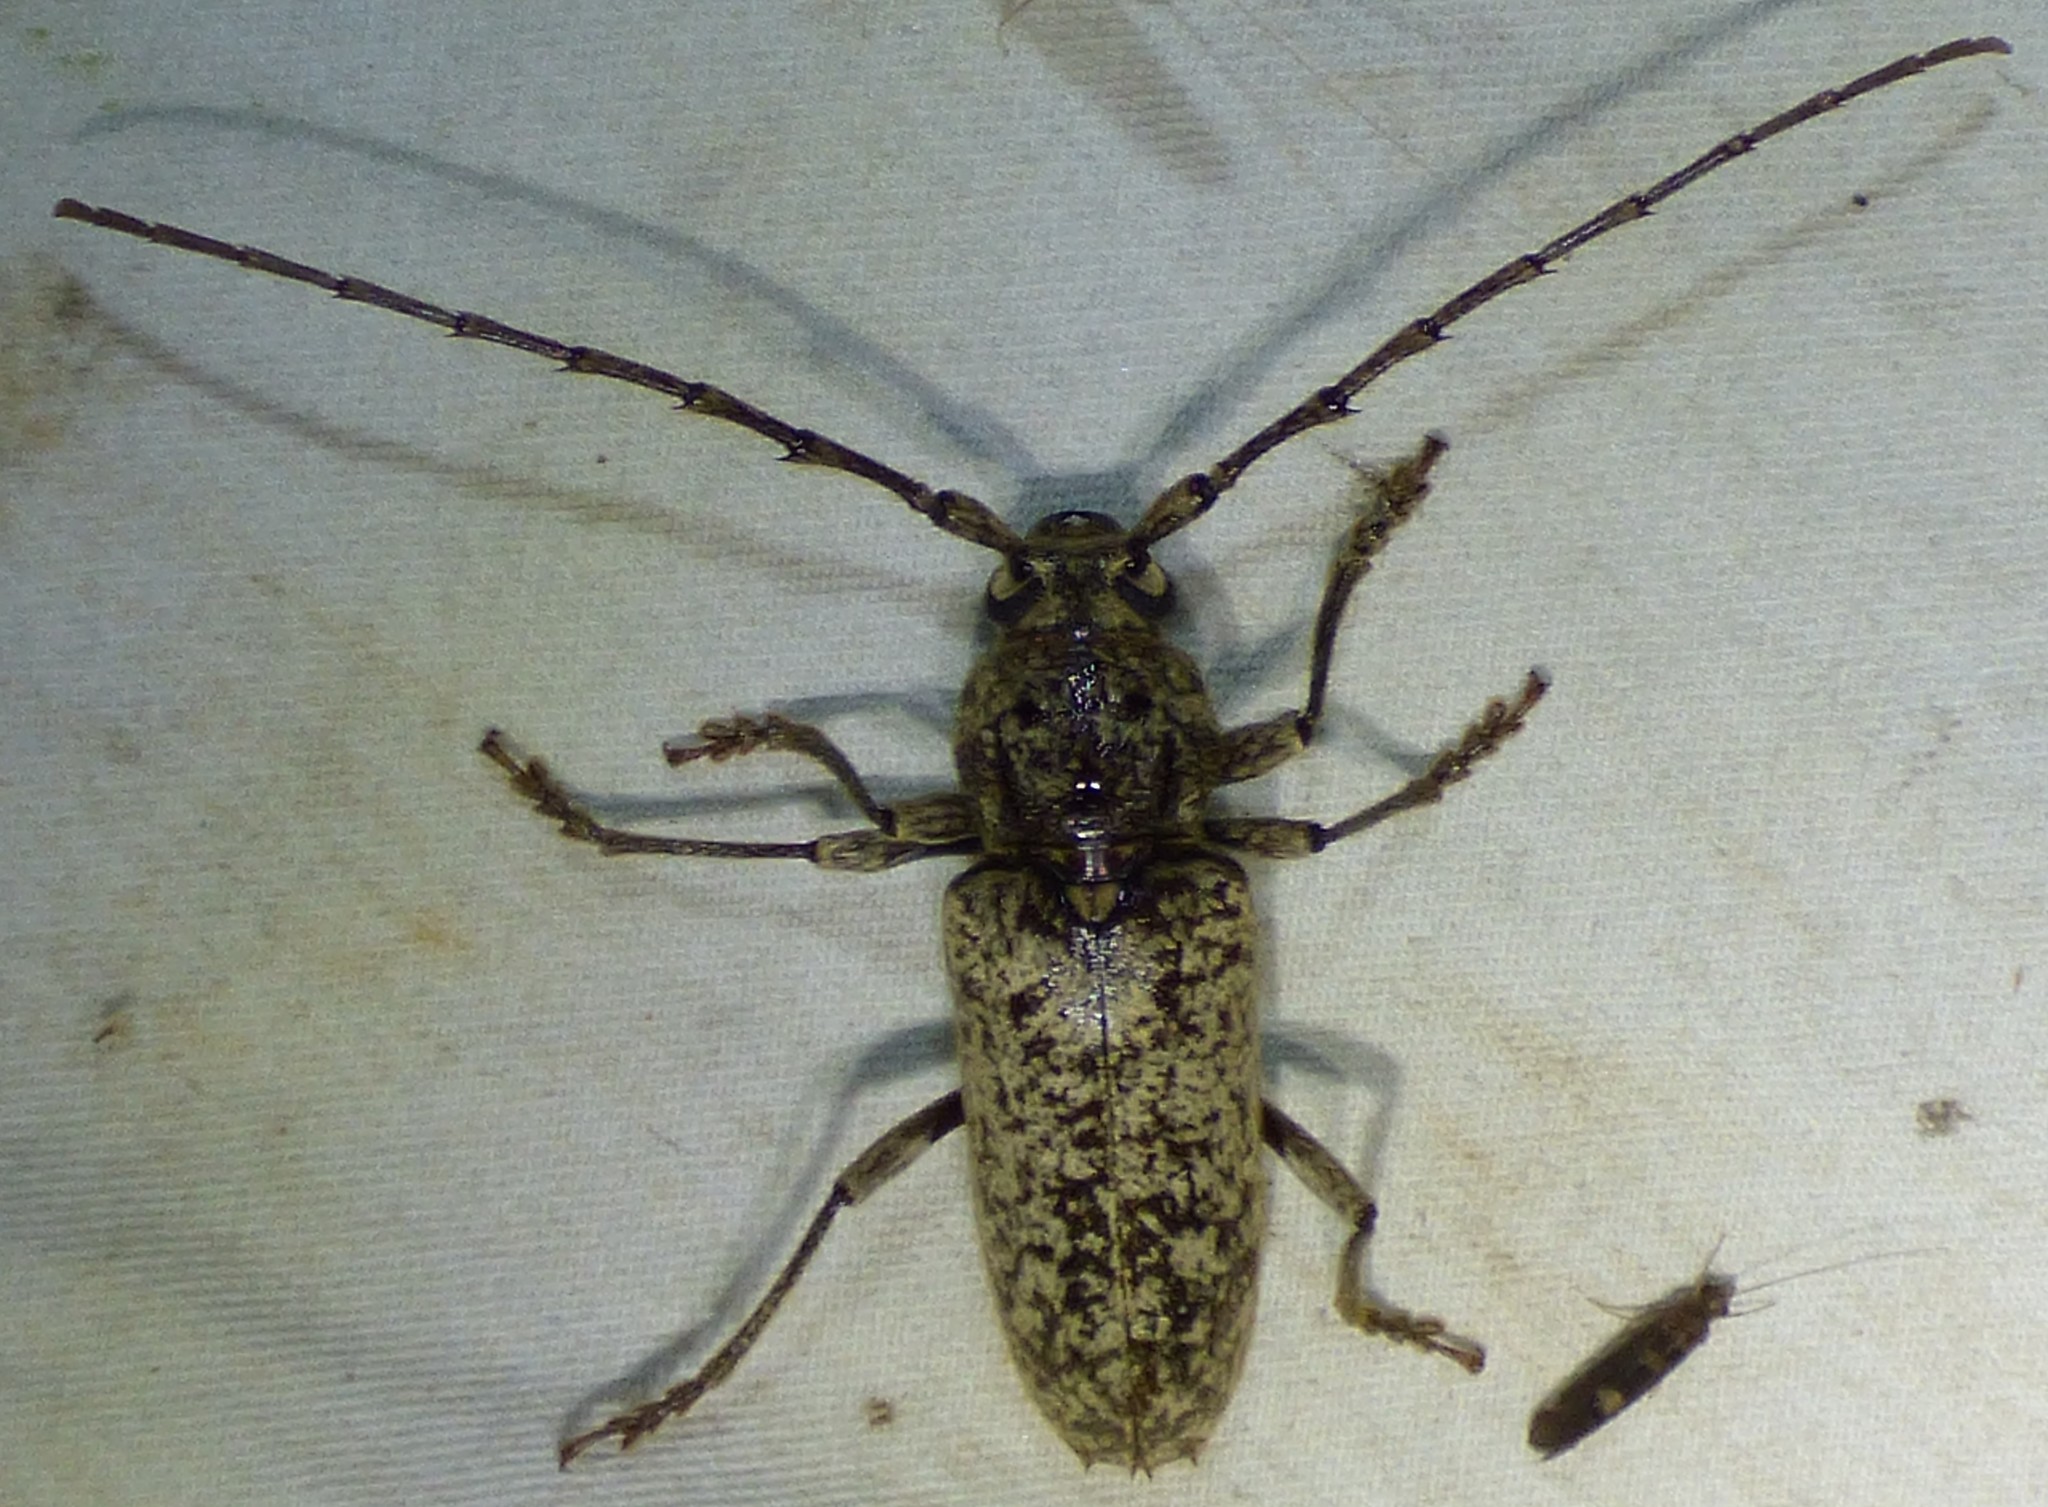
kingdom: Animalia
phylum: Arthropoda
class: Insecta
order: Coleoptera
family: Cerambycidae
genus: Enaphalodes
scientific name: Enaphalodes cortiphagus
